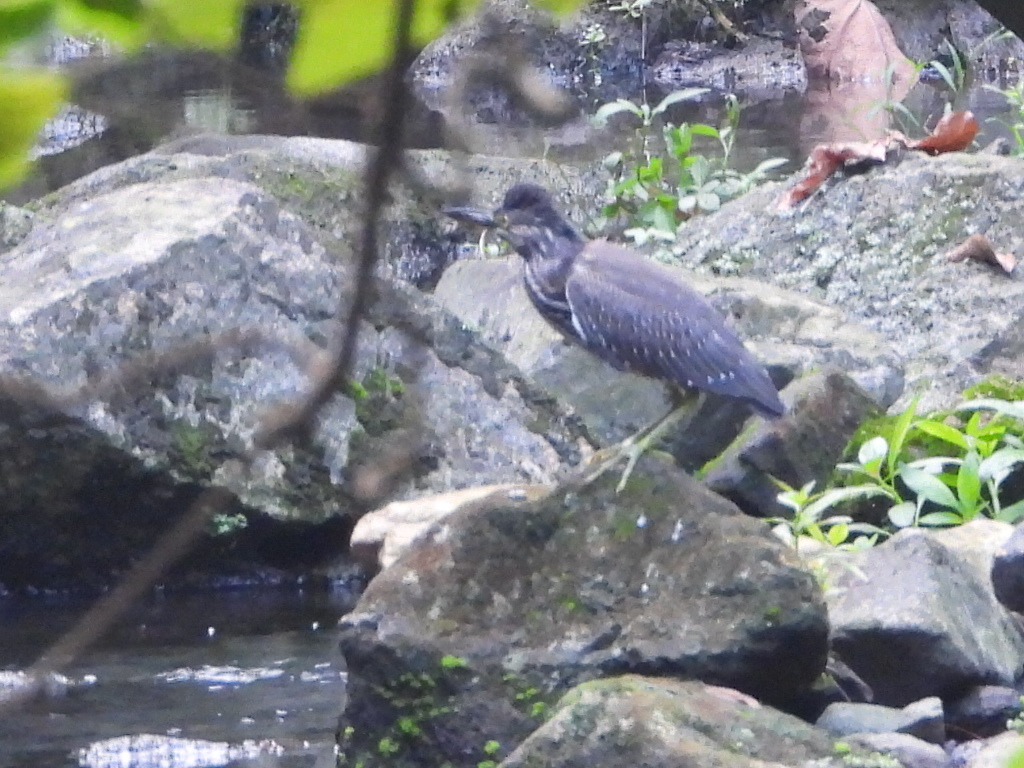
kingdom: Animalia
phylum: Chordata
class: Aves
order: Pelecaniformes
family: Ardeidae
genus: Butorides
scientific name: Butorides striata
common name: Striated heron
